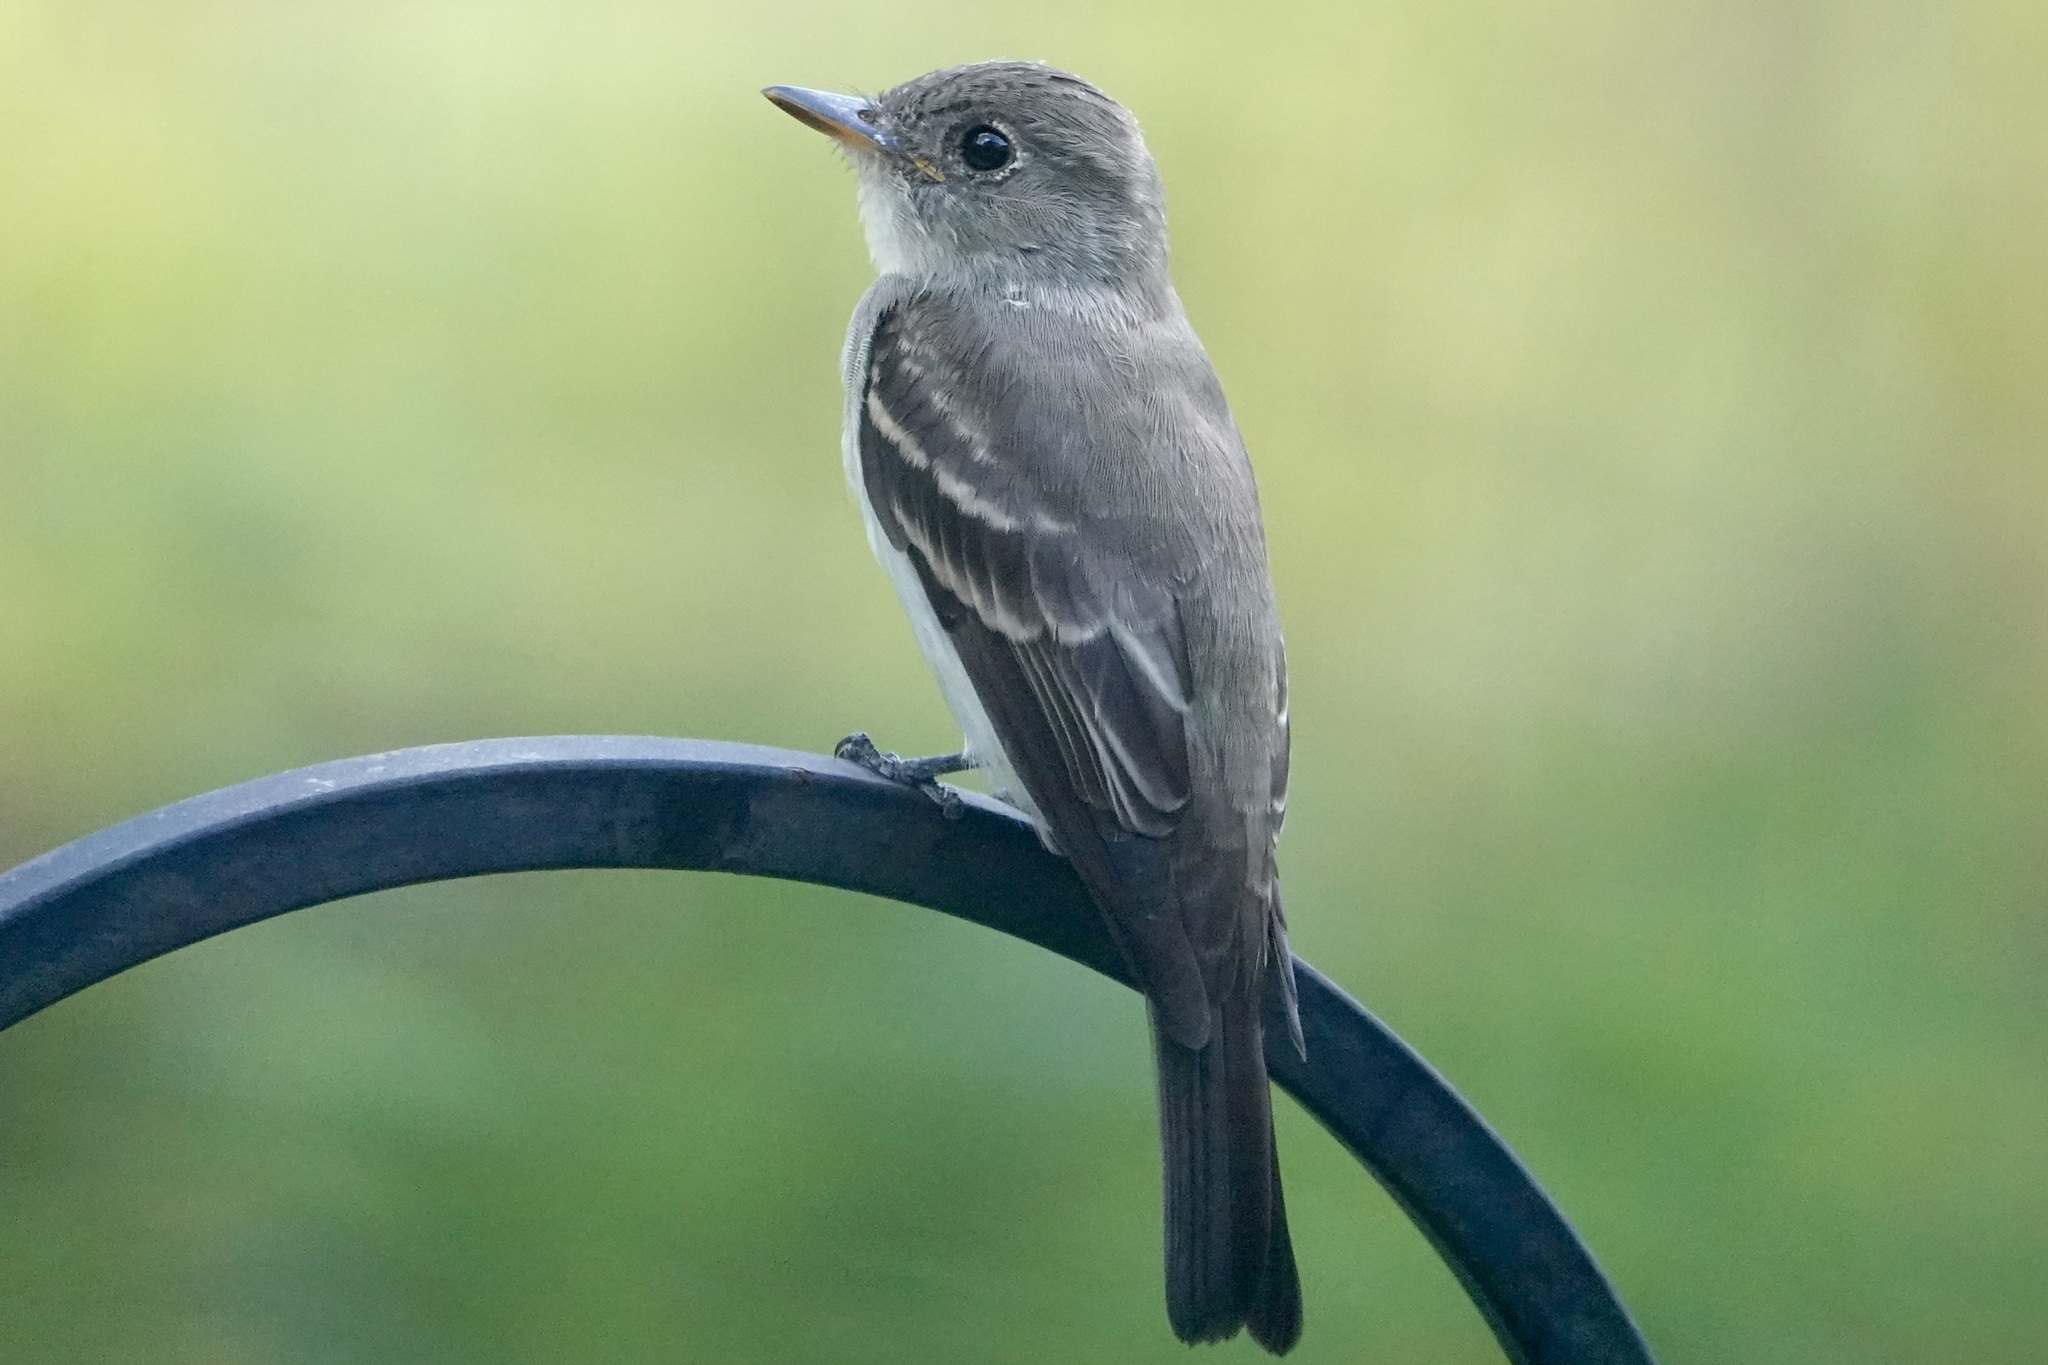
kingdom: Animalia
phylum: Chordata
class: Aves
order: Passeriformes
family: Tyrannidae
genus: Contopus
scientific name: Contopus virens
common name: Eastern wood-pewee
